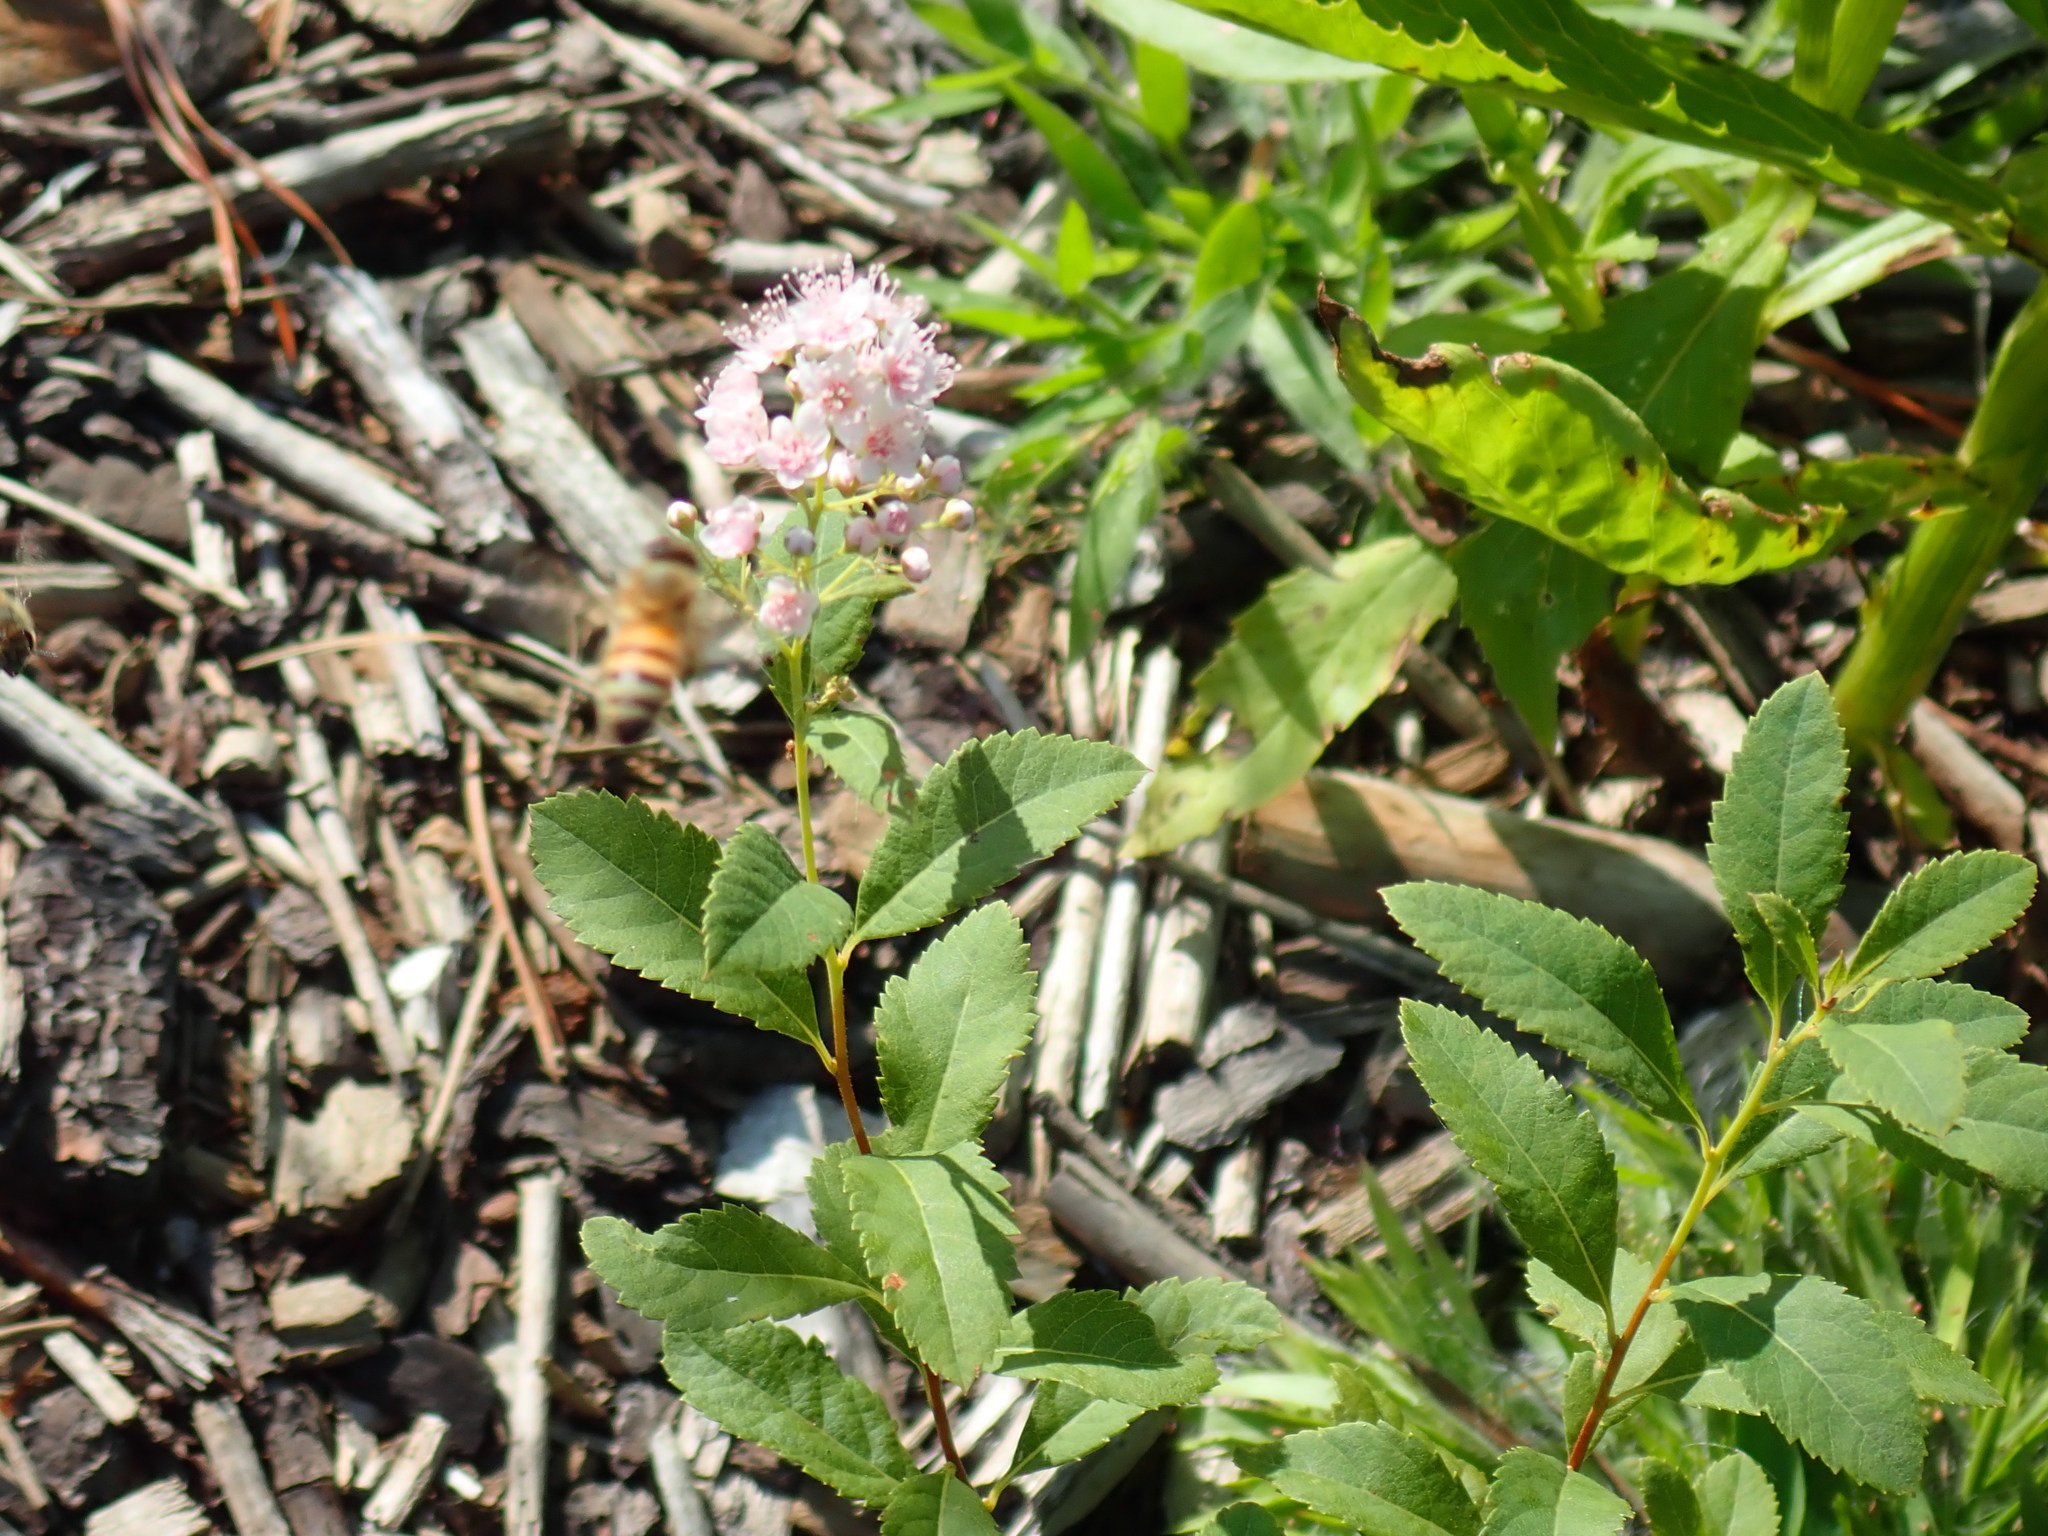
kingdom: Plantae
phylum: Tracheophyta
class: Magnoliopsida
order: Rosales
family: Rosaceae
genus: Spiraea
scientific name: Spiraea alba
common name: Pale bridewort
